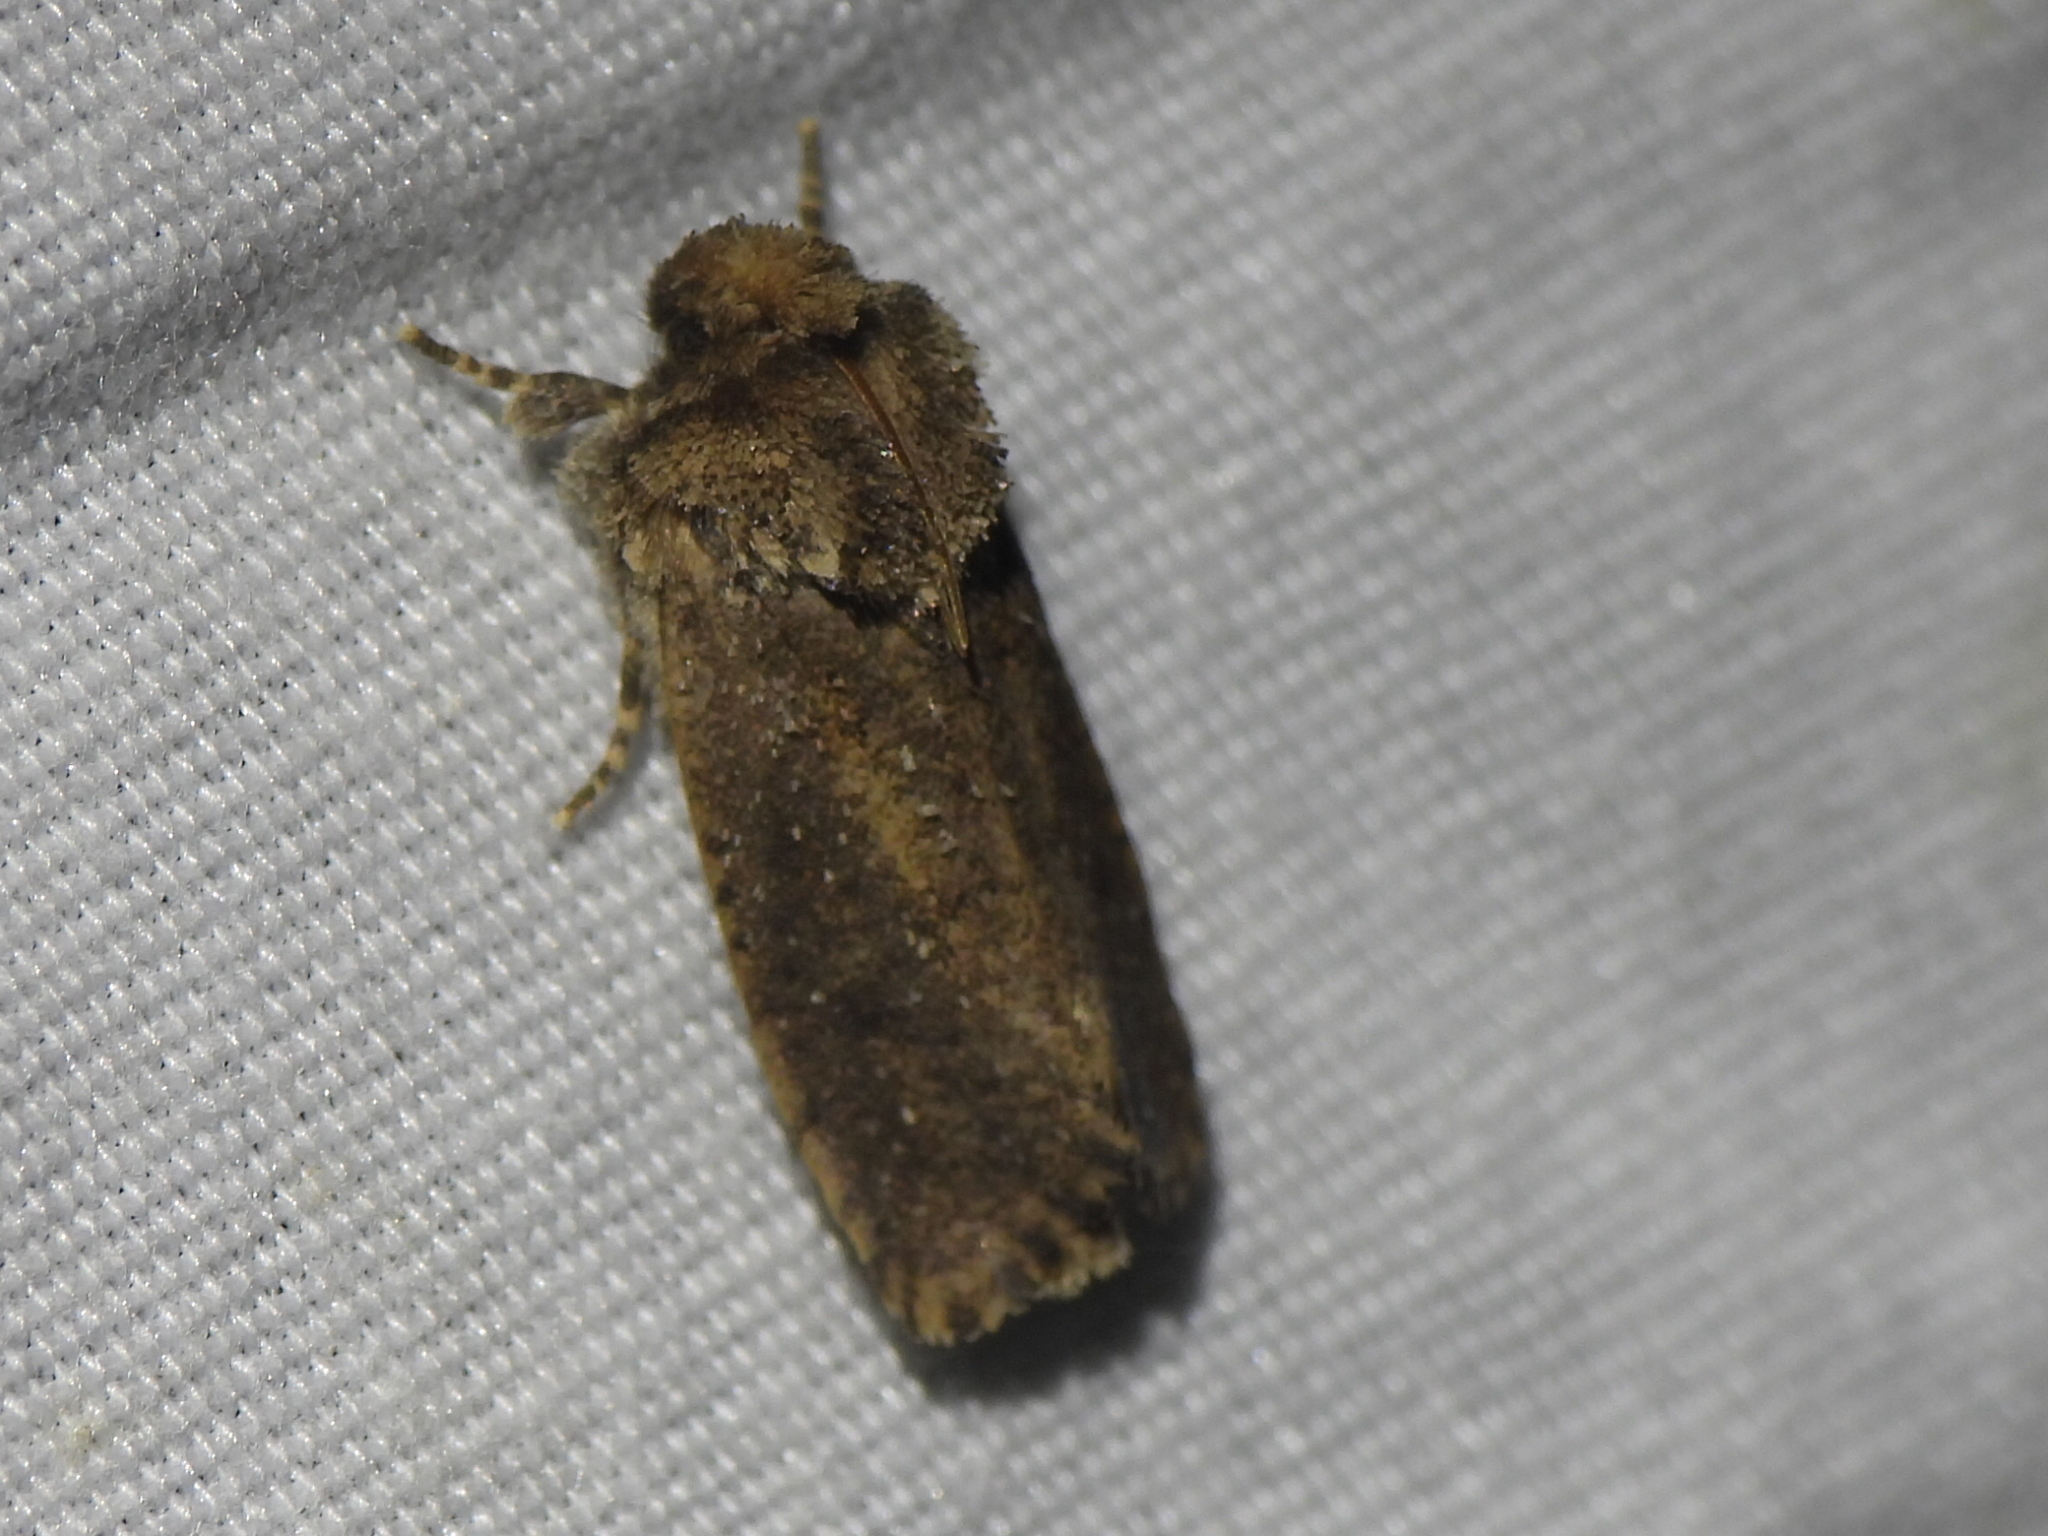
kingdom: Animalia
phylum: Arthropoda
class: Insecta
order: Lepidoptera
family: Tineidae
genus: Acrolophus
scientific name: Acrolophus arcanella
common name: Arcane grass tubeworm moth
